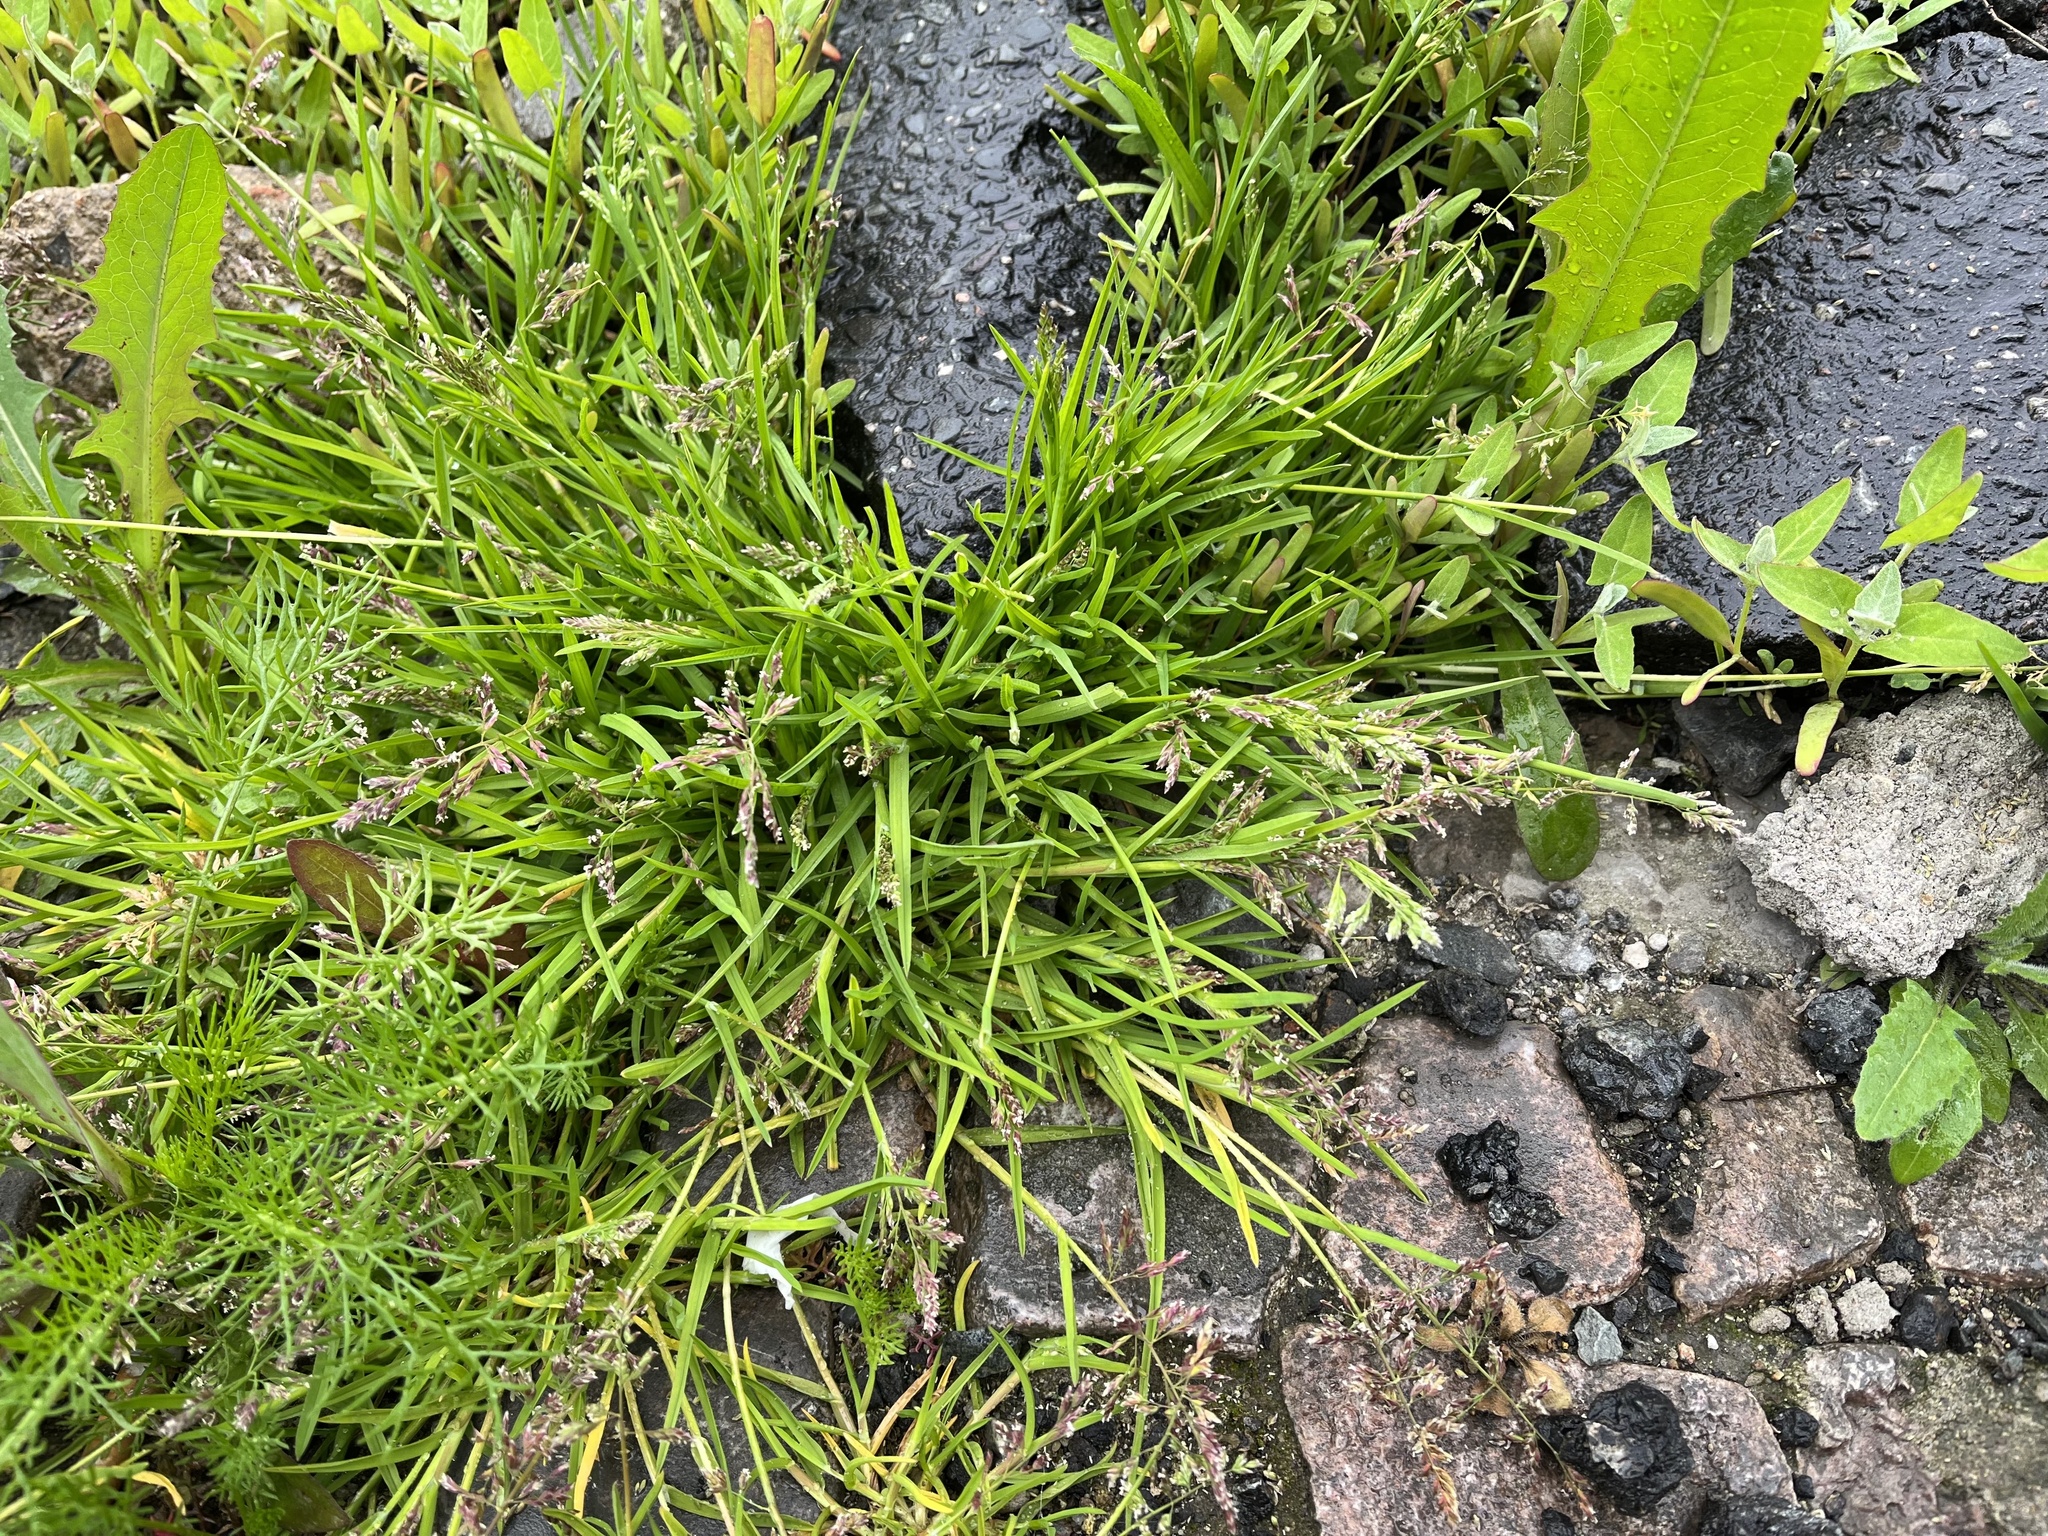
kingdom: Plantae
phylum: Tracheophyta
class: Liliopsida
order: Poales
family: Poaceae
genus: Poa
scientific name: Poa annua
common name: Annual bluegrass
